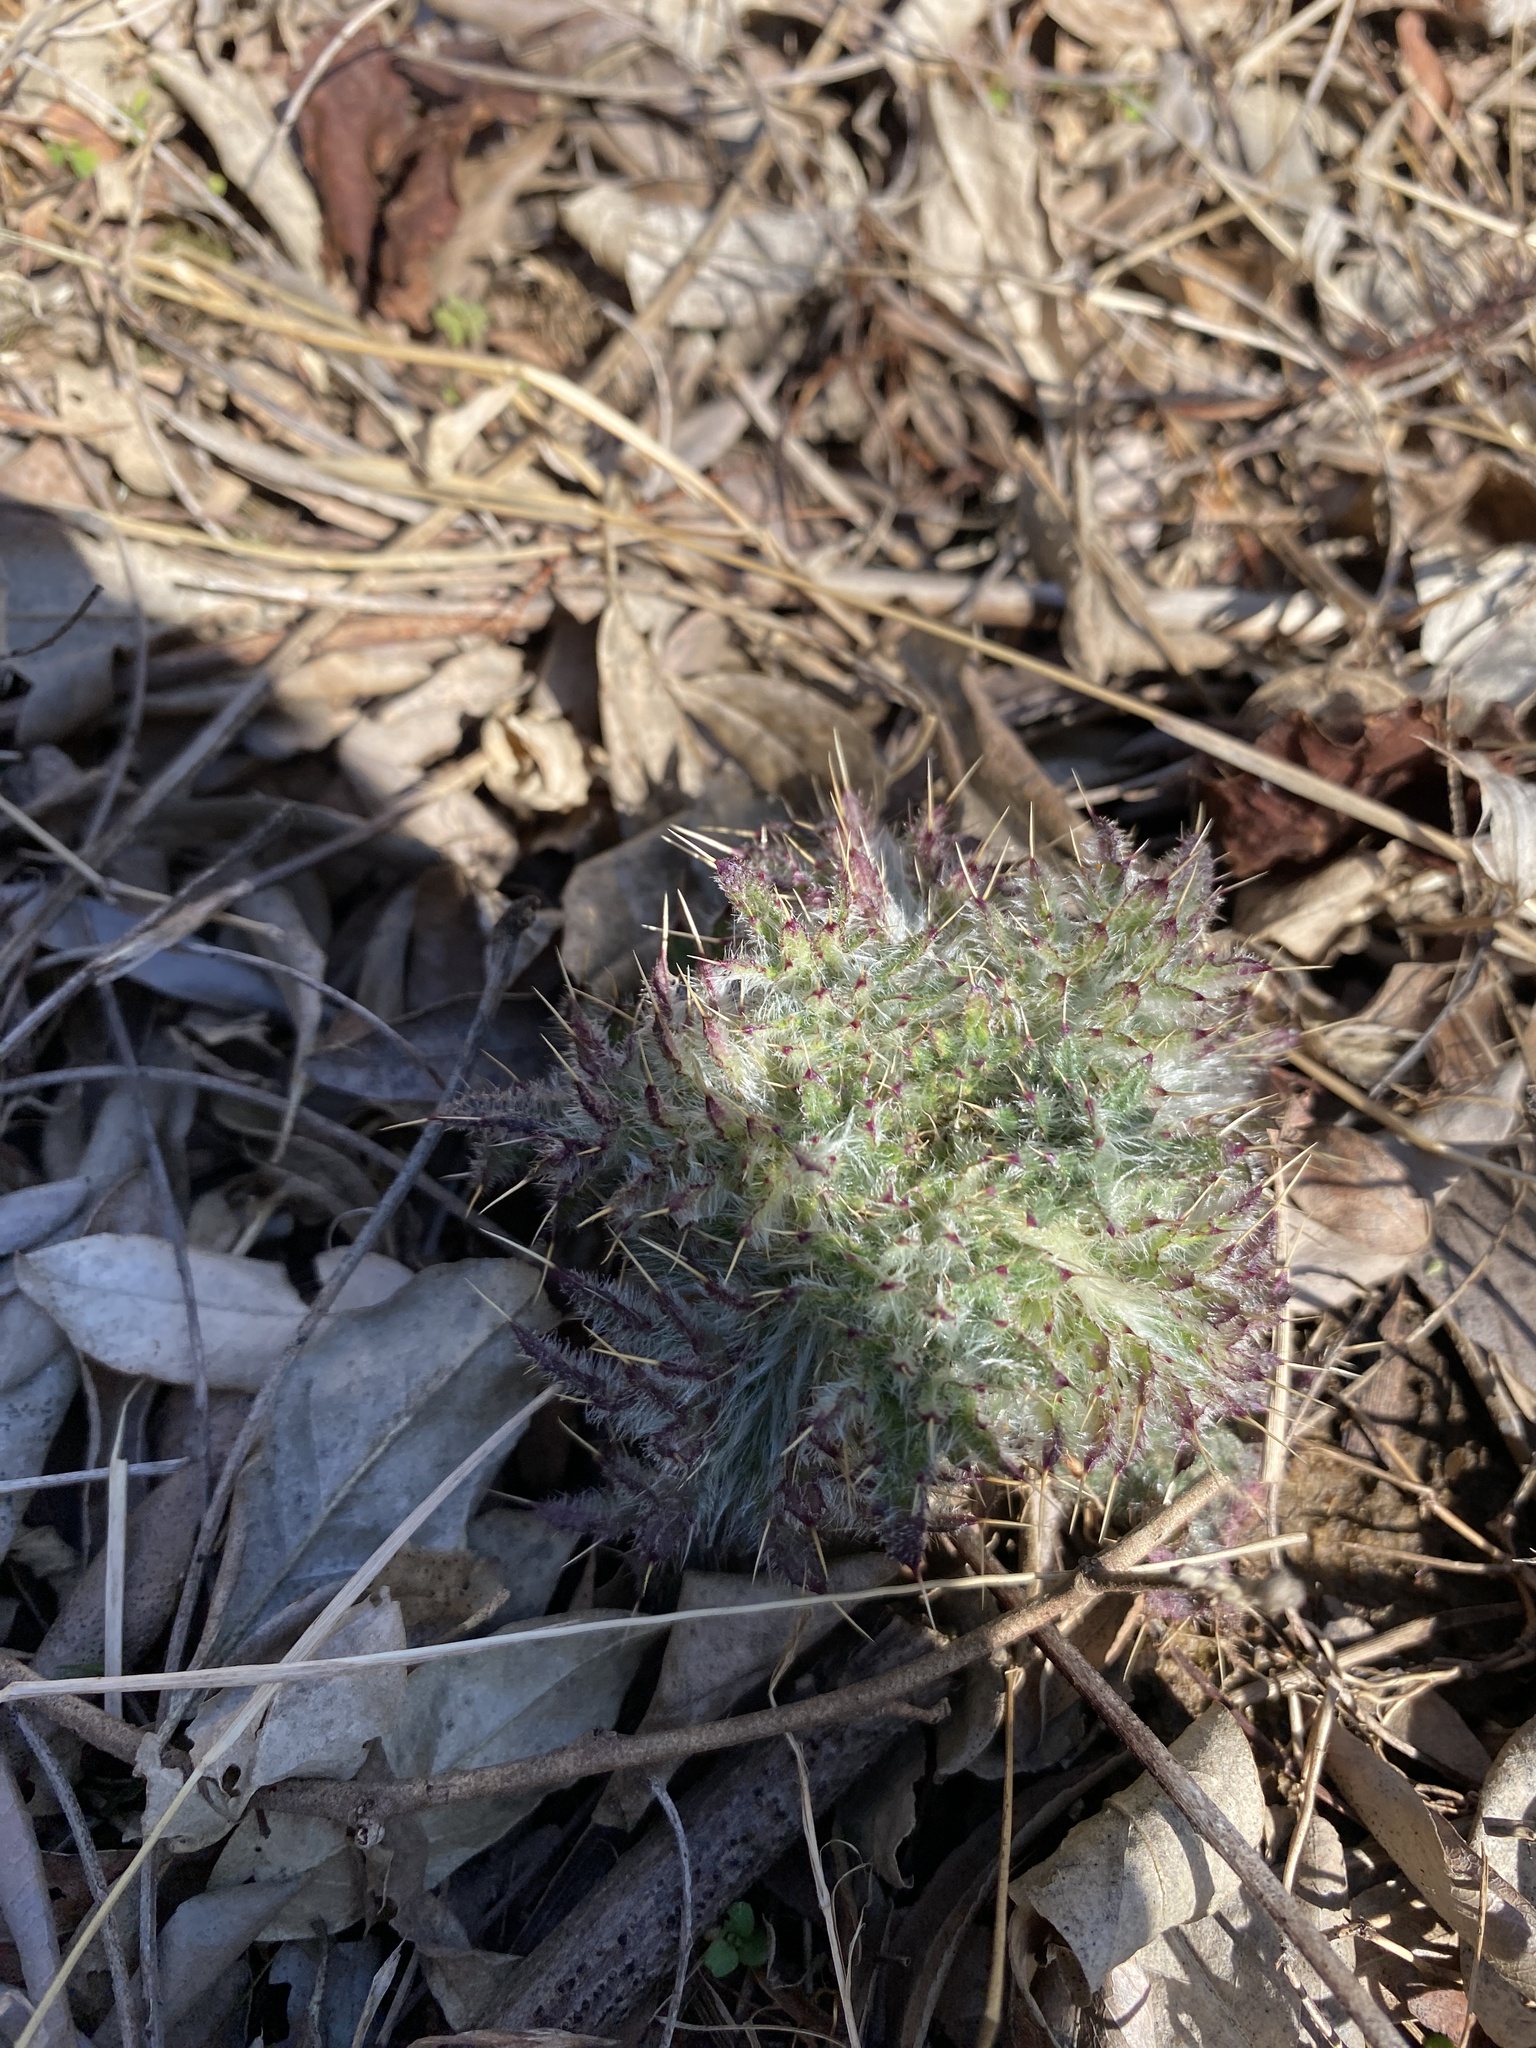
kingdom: Plantae
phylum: Tracheophyta
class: Magnoliopsida
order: Asterales
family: Asteraceae
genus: Cirsium
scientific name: Cirsium vulgare
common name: Bull thistle
